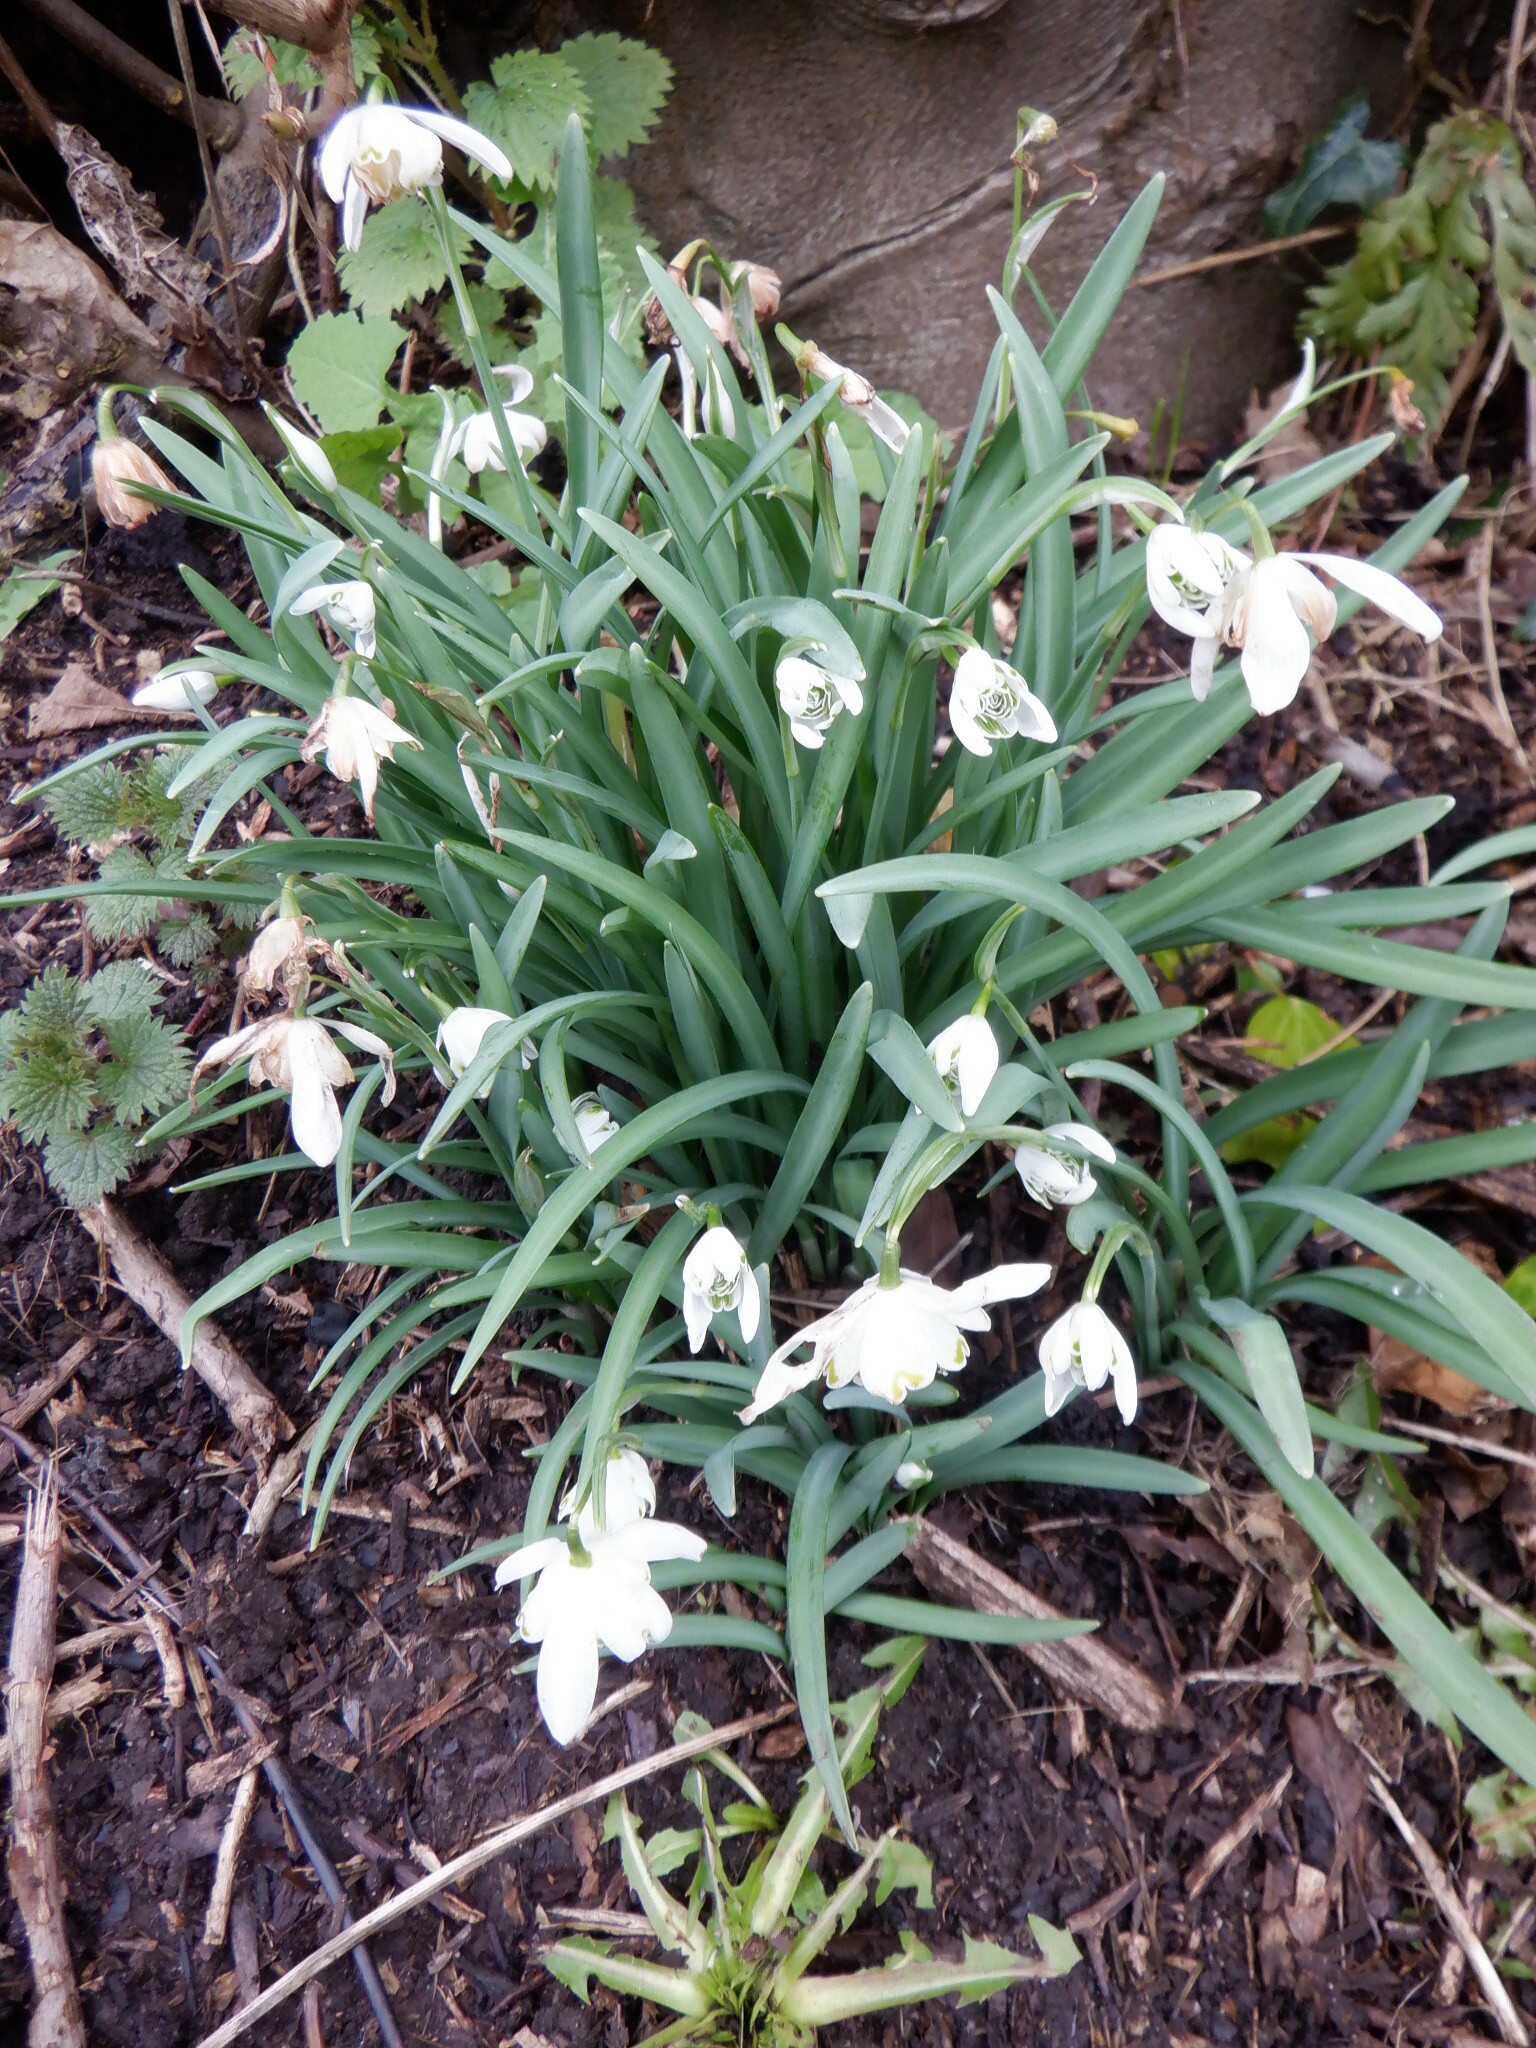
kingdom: Plantae
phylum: Tracheophyta
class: Liliopsida
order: Asparagales
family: Amaryllidaceae
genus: Galanthus
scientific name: Galanthus nivalis
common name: Snowdrop
